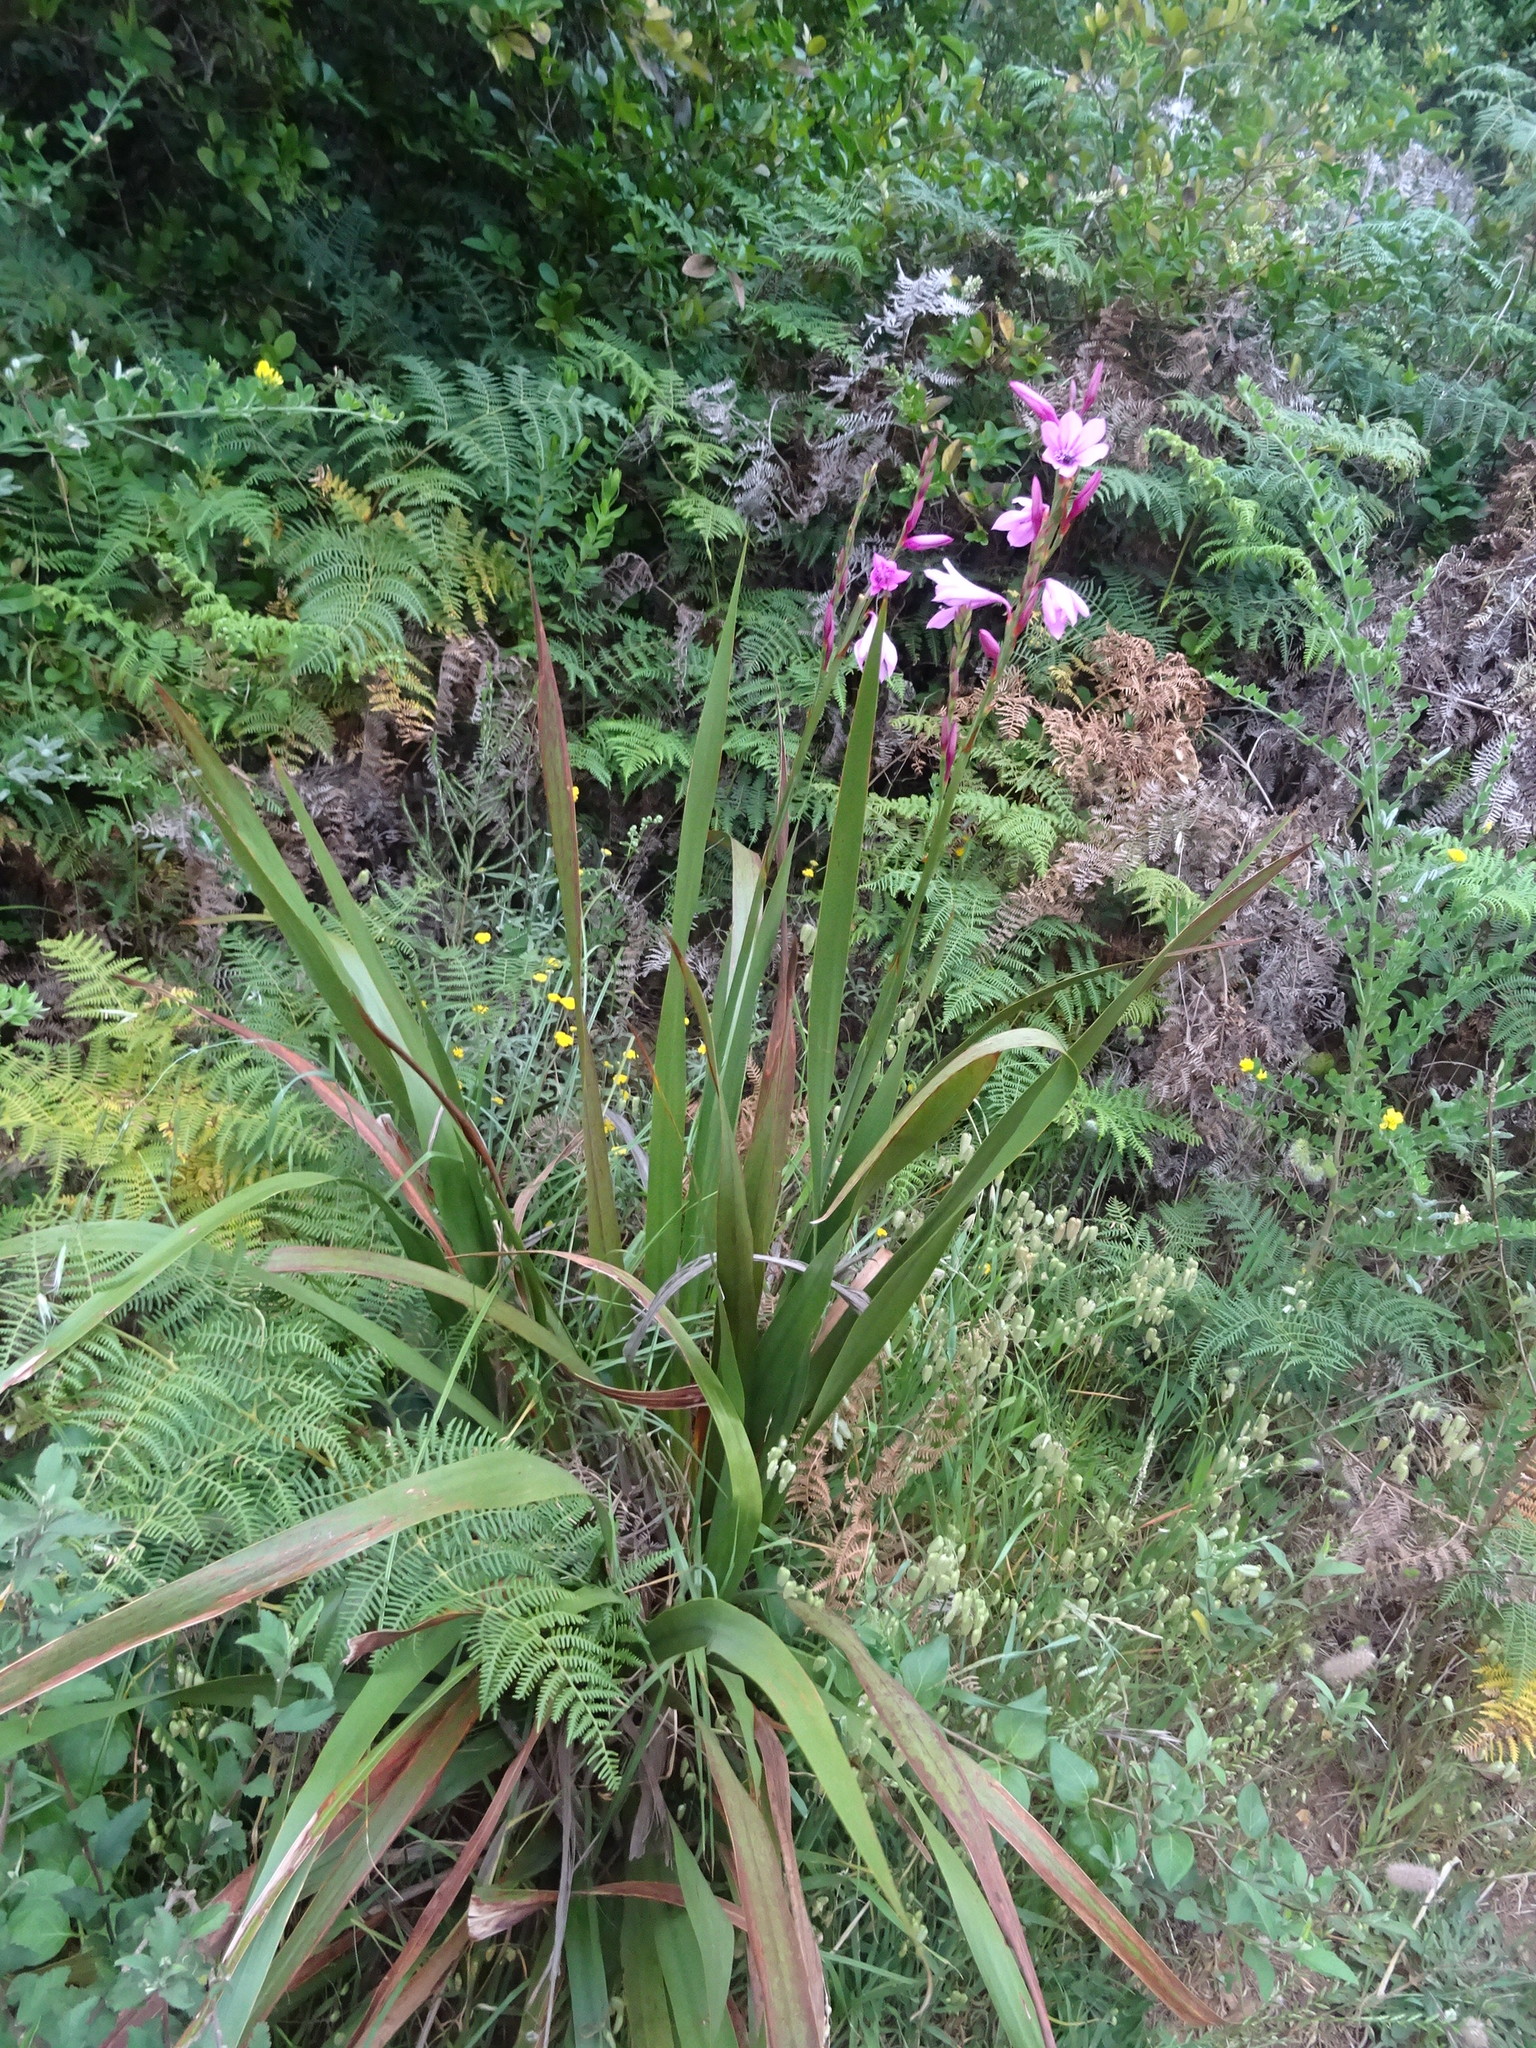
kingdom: Plantae
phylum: Tracheophyta
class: Liliopsida
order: Asparagales
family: Iridaceae
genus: Watsonia
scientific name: Watsonia borbonica
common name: Bugle-lily
